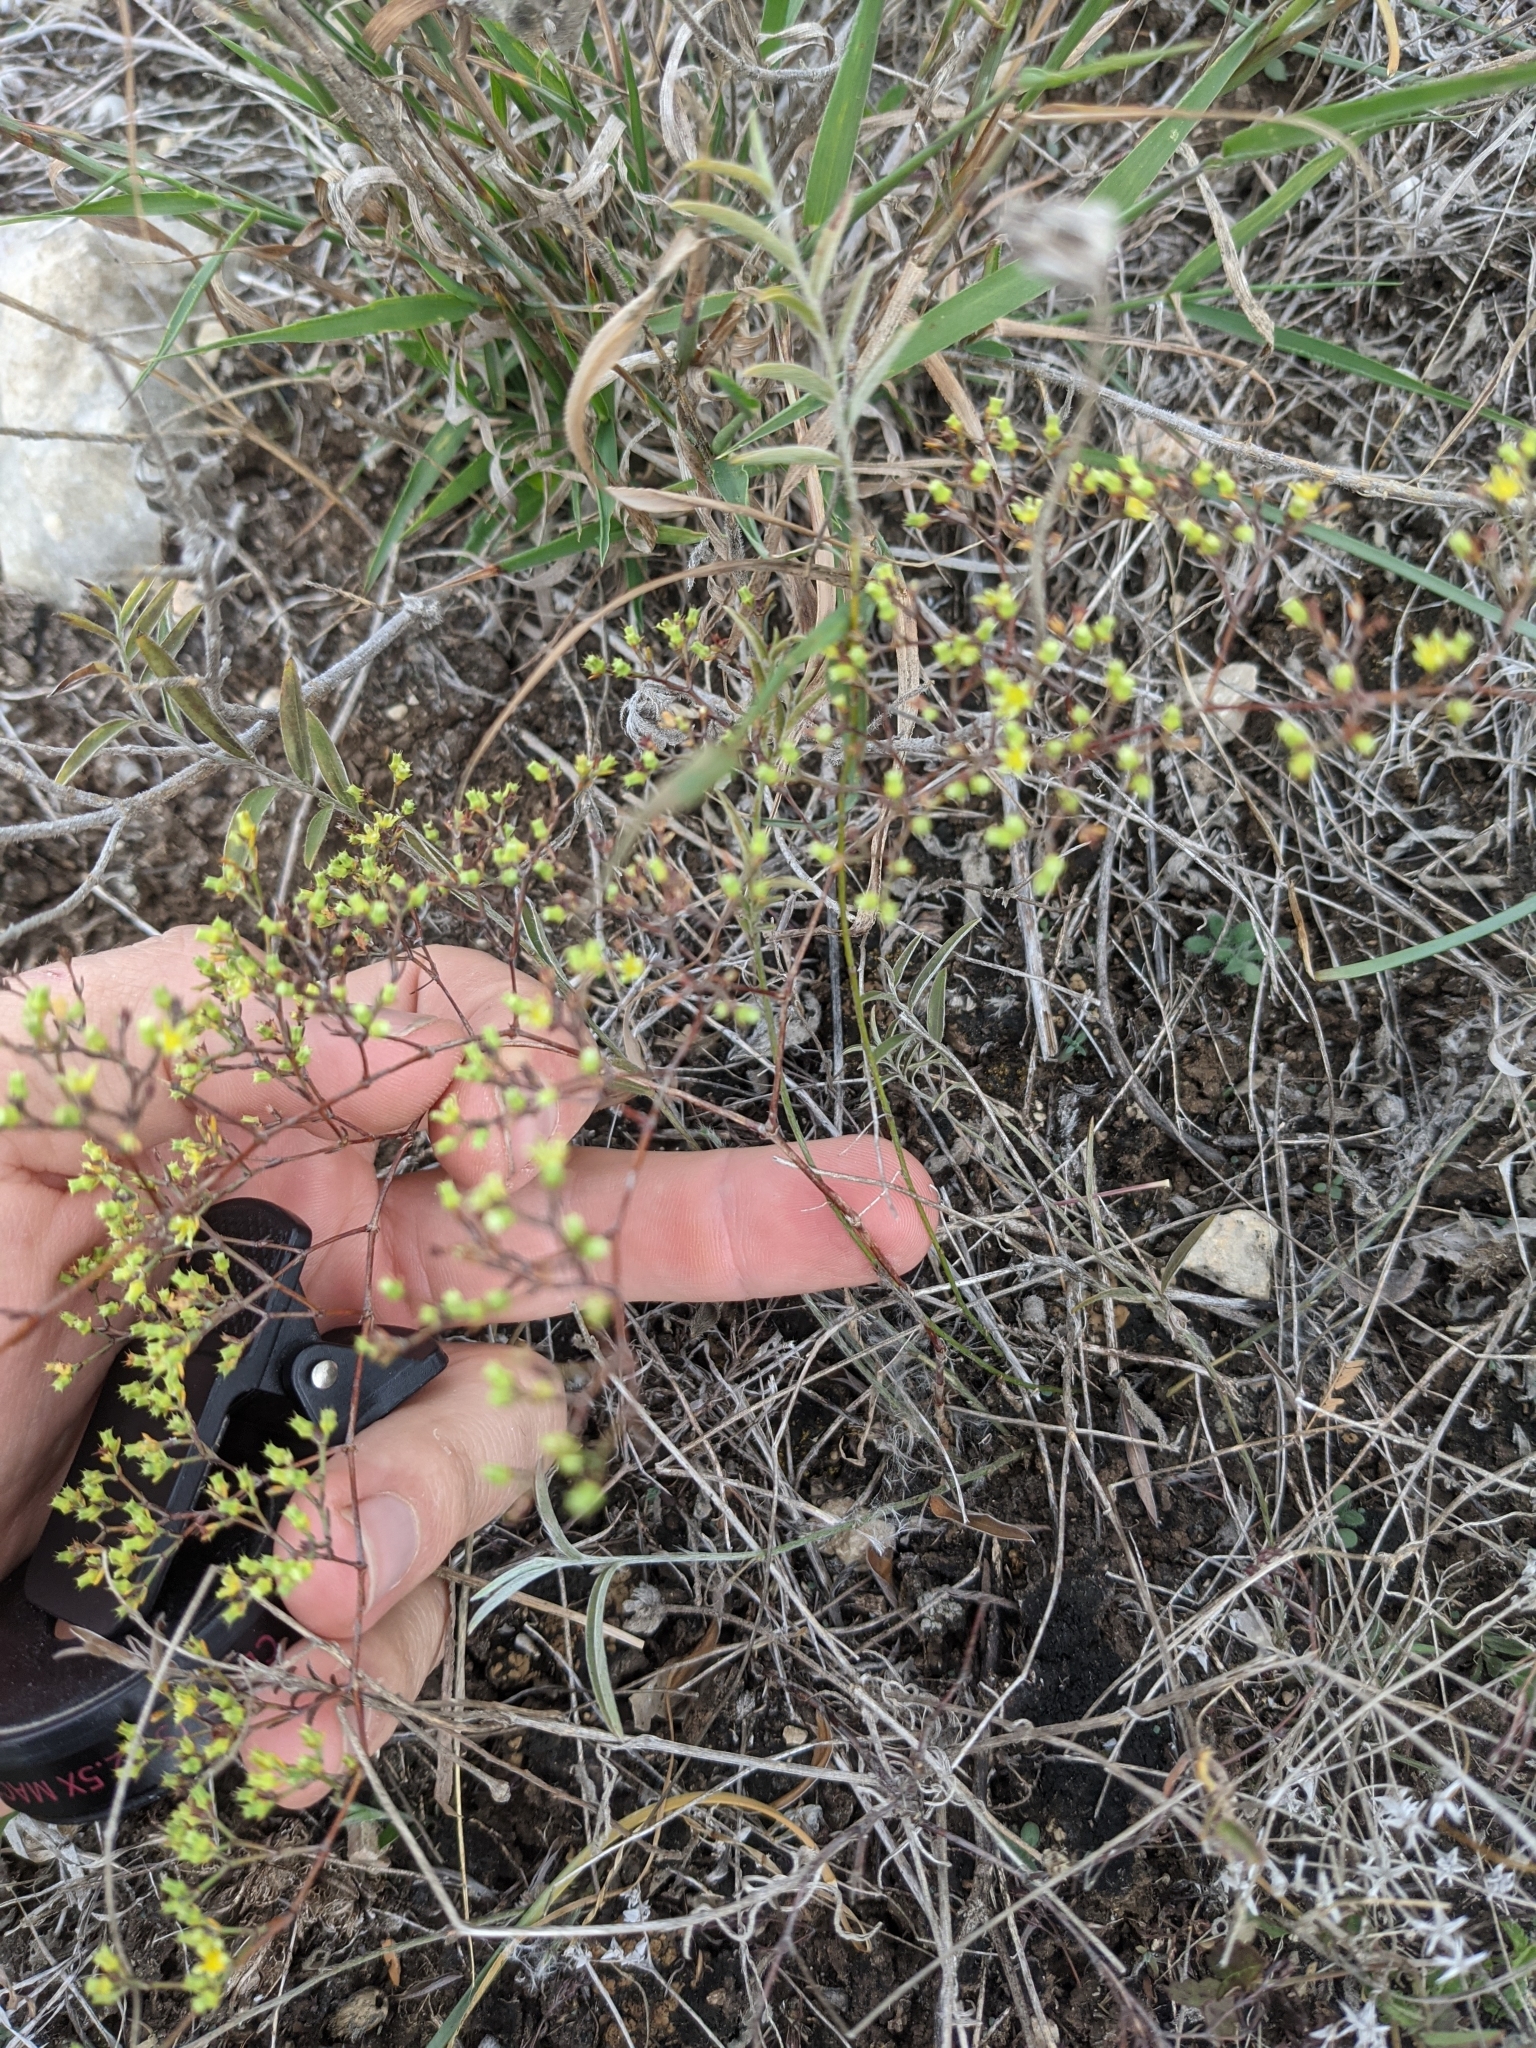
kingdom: Plantae
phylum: Tracheophyta
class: Magnoliopsida
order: Caryophyllales
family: Caryophyllaceae
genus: Paronychia
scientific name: Paronychia lindheimeri
